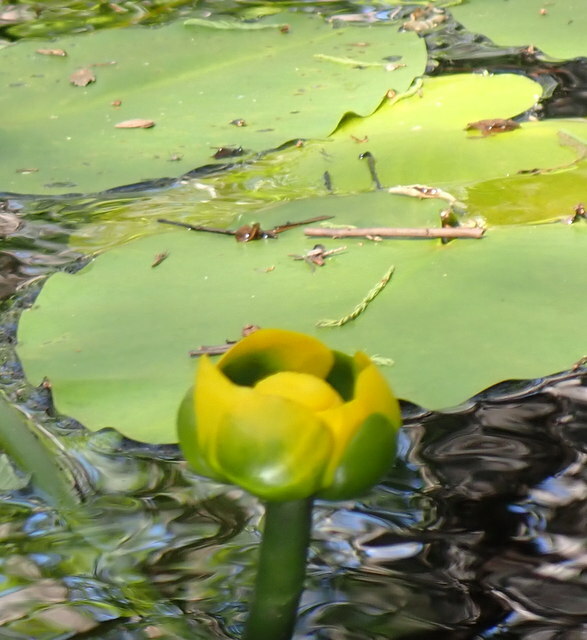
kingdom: Plantae
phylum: Tracheophyta
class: Magnoliopsida
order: Nymphaeales
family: Nymphaeaceae
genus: Nuphar
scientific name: Nuphar advena
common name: Spatter-dock
